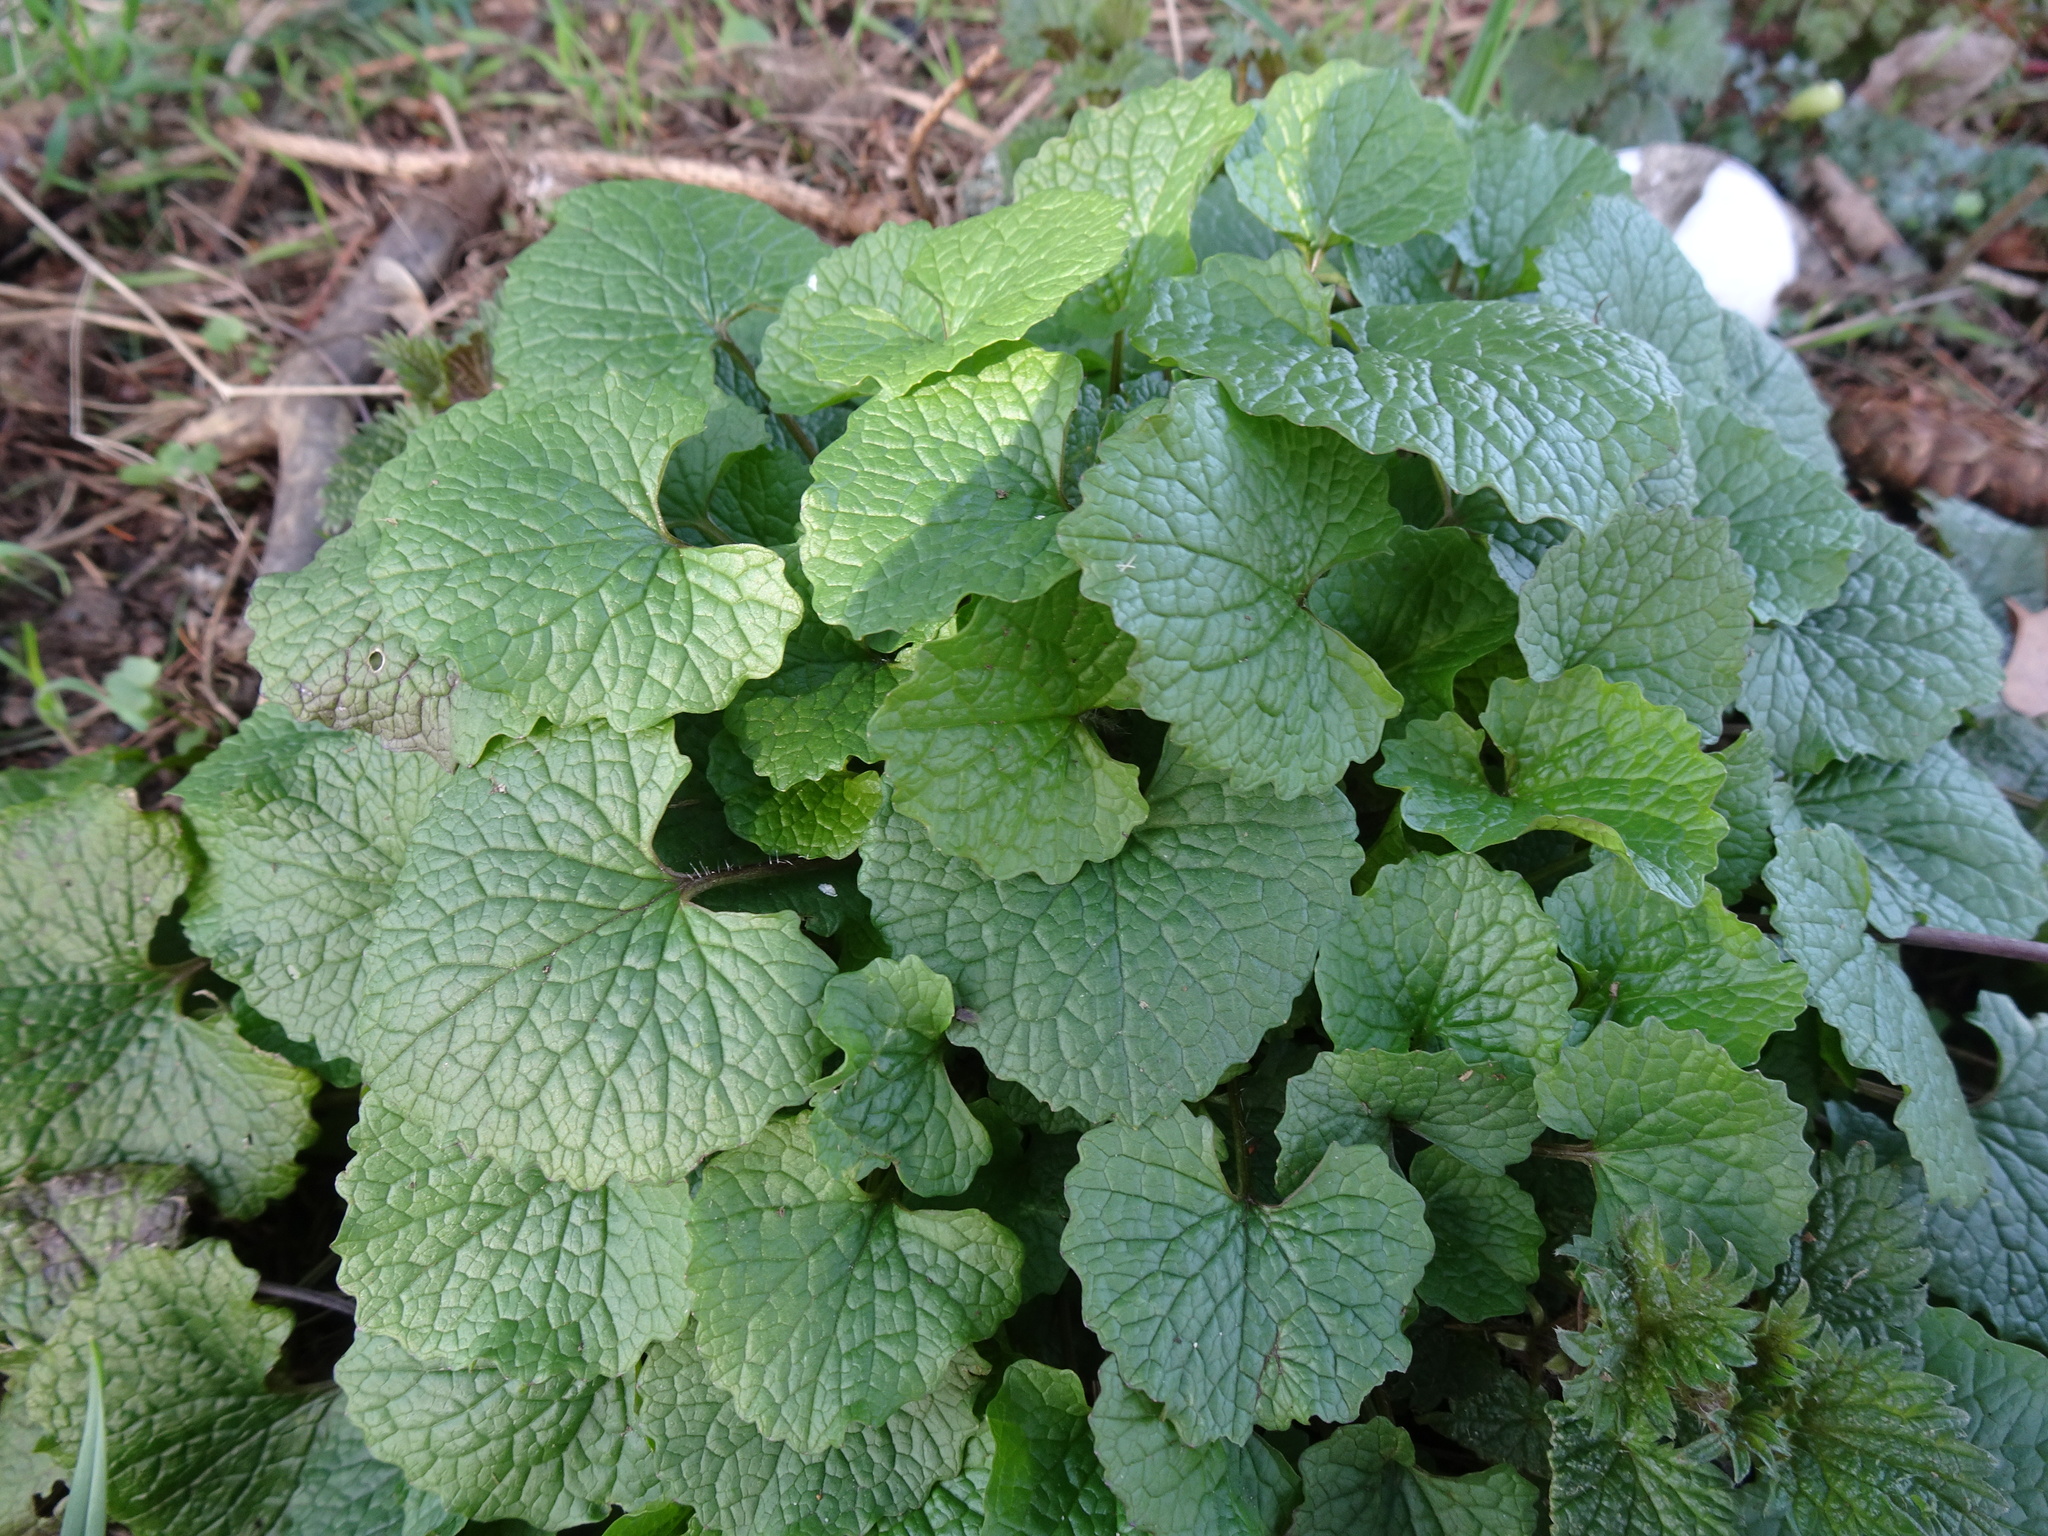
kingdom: Plantae
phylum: Tracheophyta
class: Magnoliopsida
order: Brassicales
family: Brassicaceae
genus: Alliaria
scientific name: Alliaria petiolata
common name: Garlic mustard
